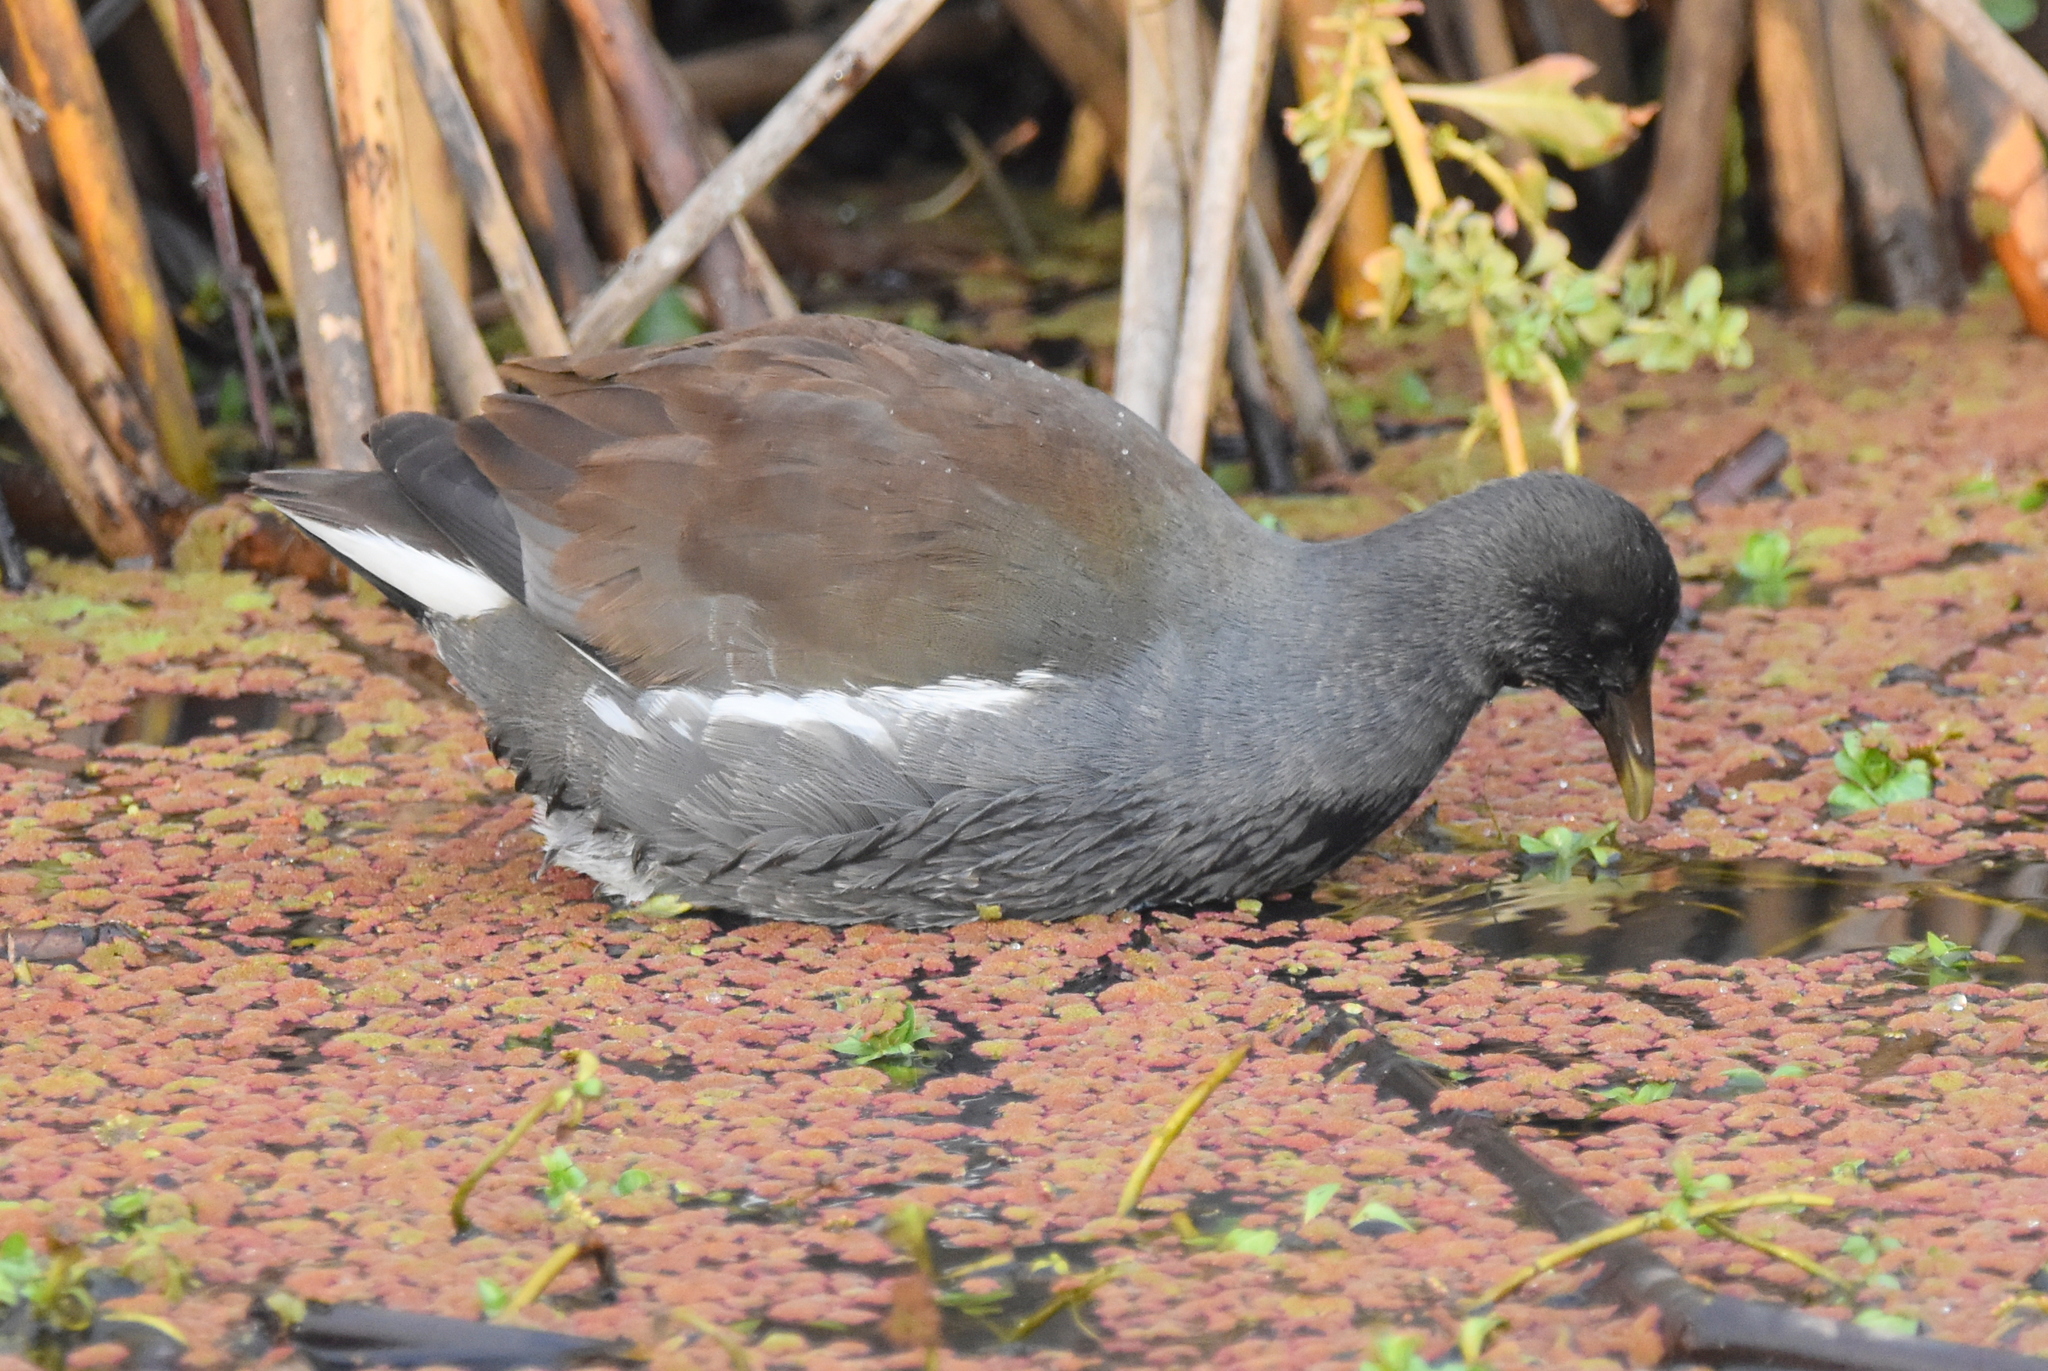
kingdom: Animalia
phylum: Chordata
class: Aves
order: Gruiformes
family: Rallidae
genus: Gallinula
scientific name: Gallinula chloropus
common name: Common moorhen
